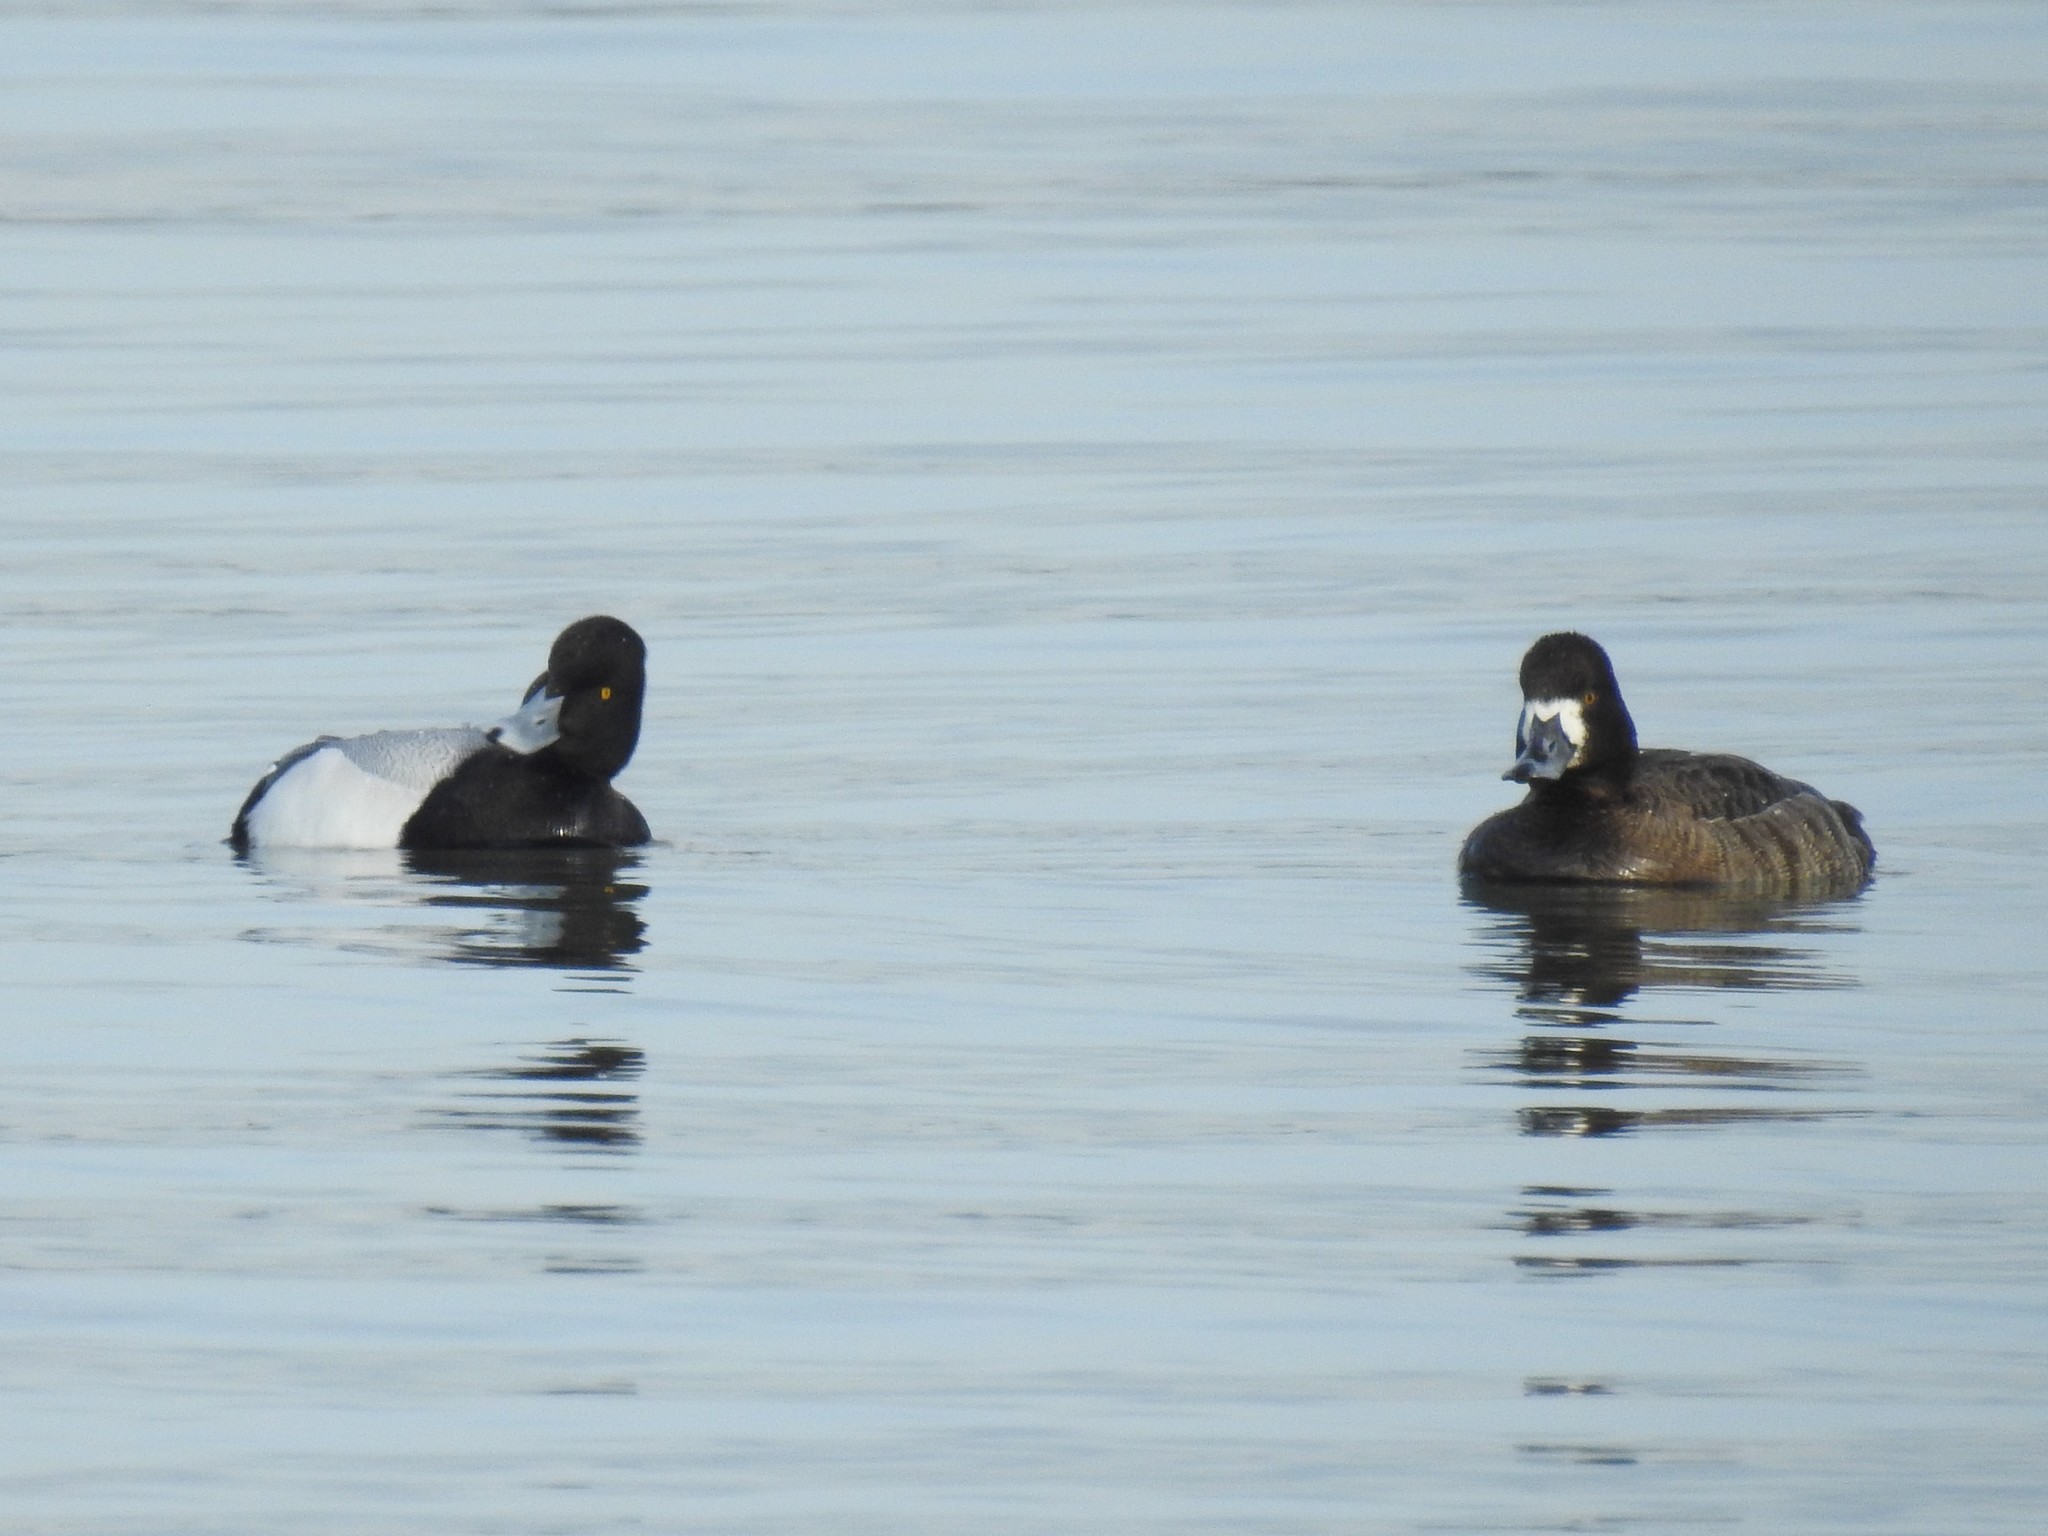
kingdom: Animalia
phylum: Chordata
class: Aves
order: Anseriformes
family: Anatidae
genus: Aythya
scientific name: Aythya affinis
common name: Lesser scaup
